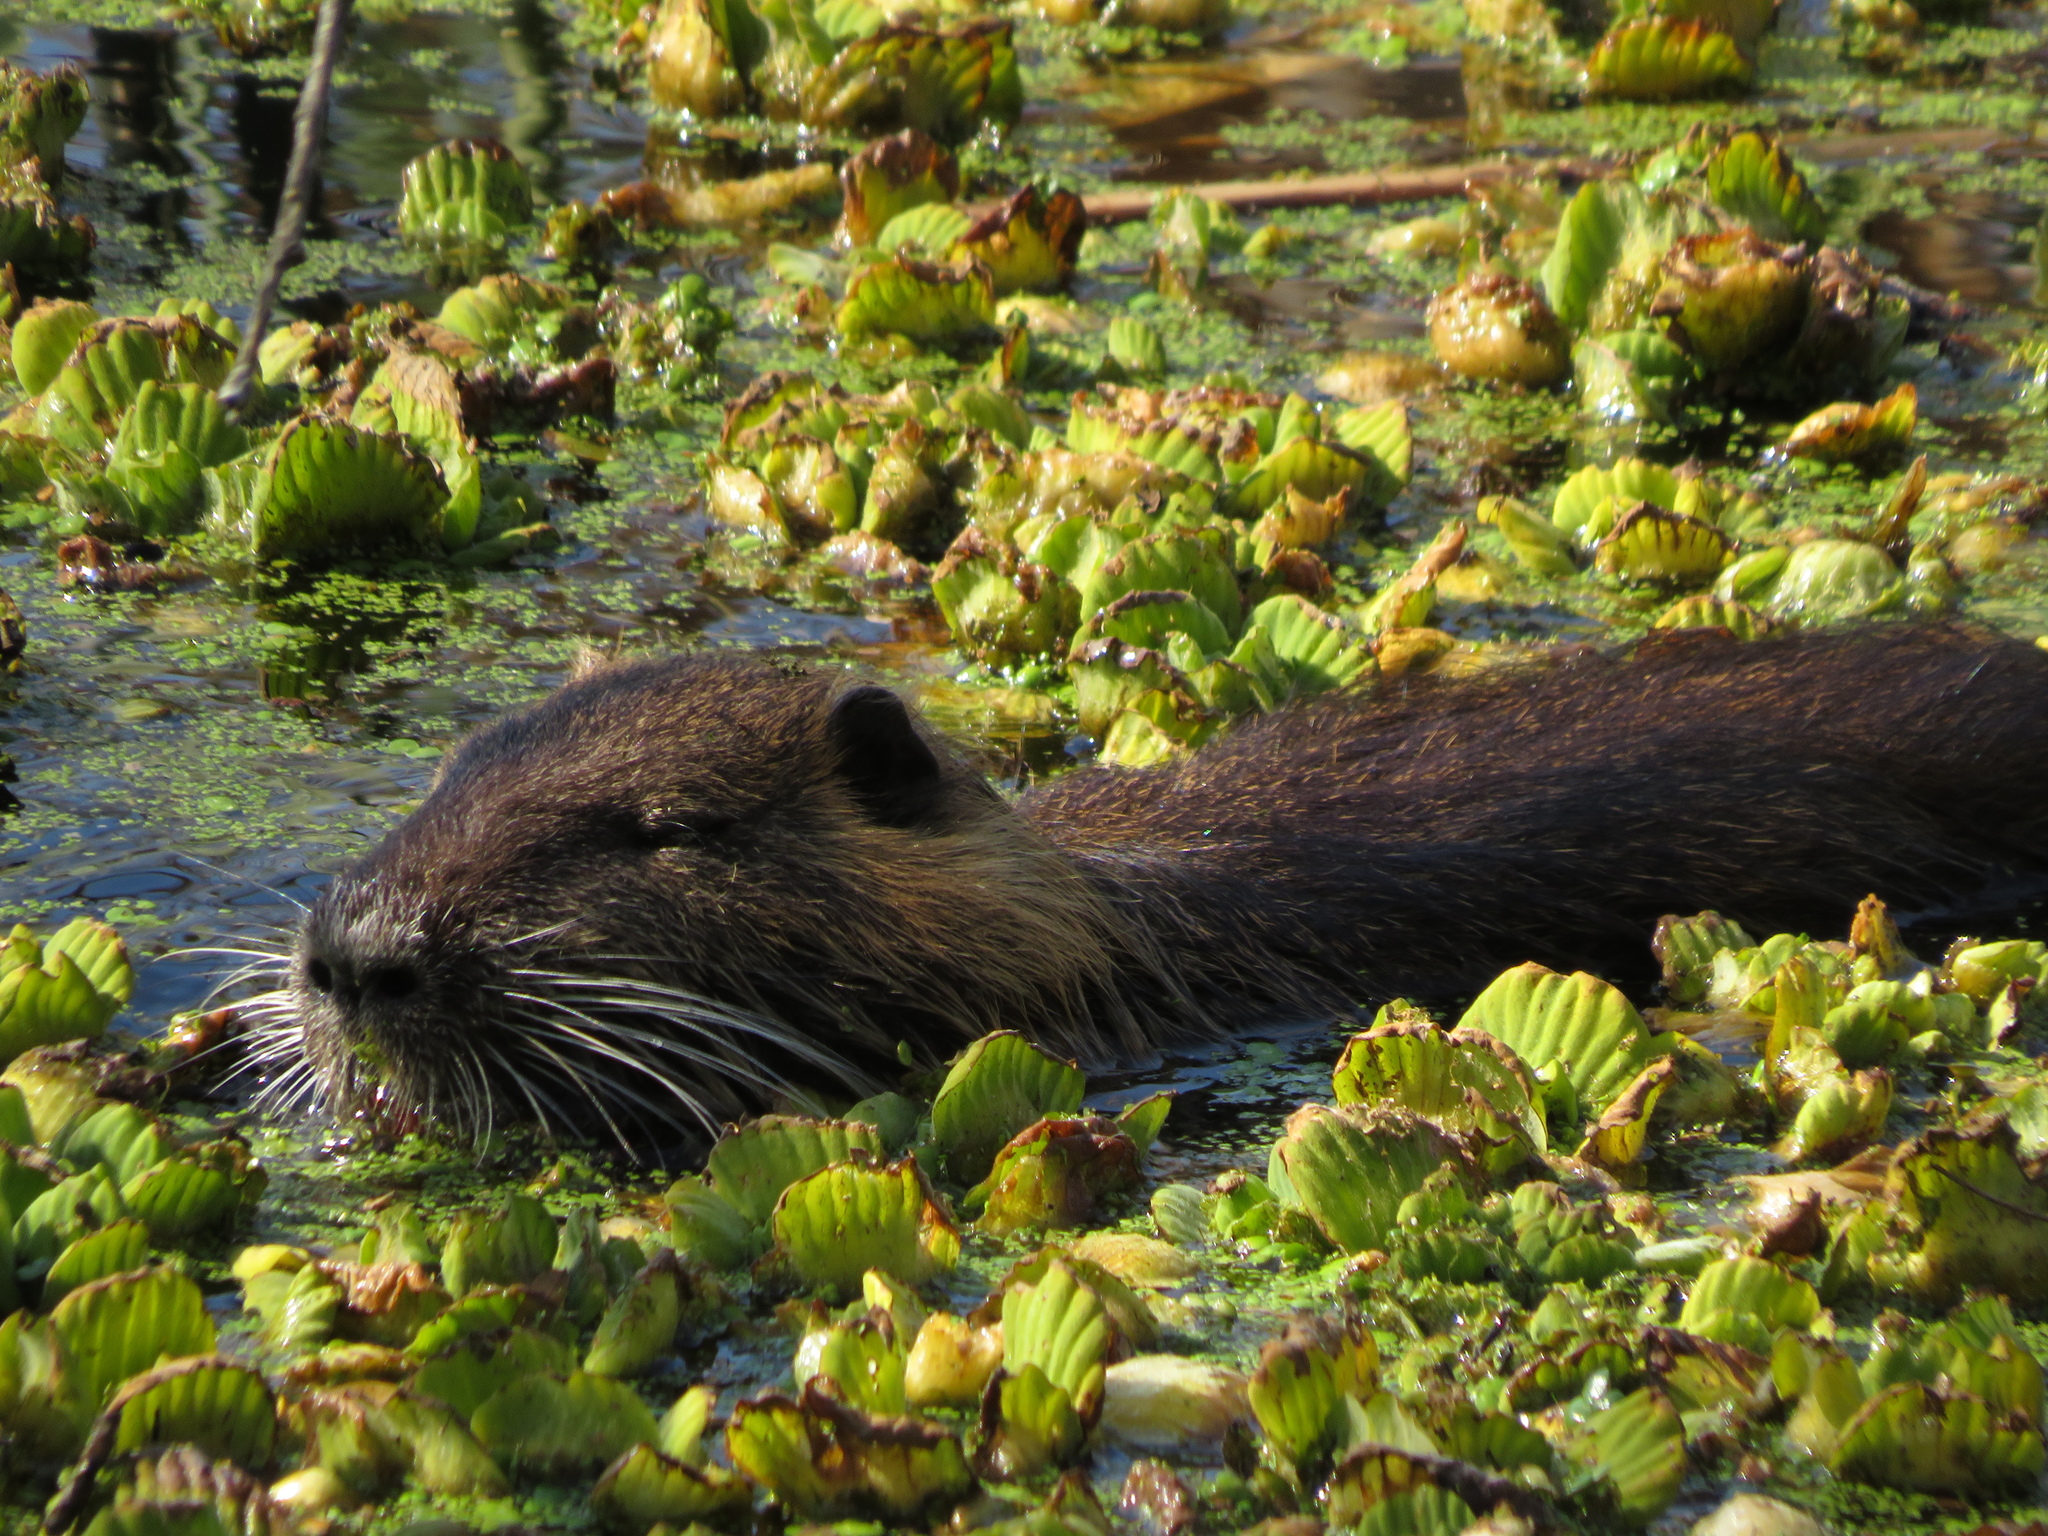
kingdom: Animalia
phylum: Chordata
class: Mammalia
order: Rodentia
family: Myocastoridae
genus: Myocastor
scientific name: Myocastor coypus
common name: Coypu
